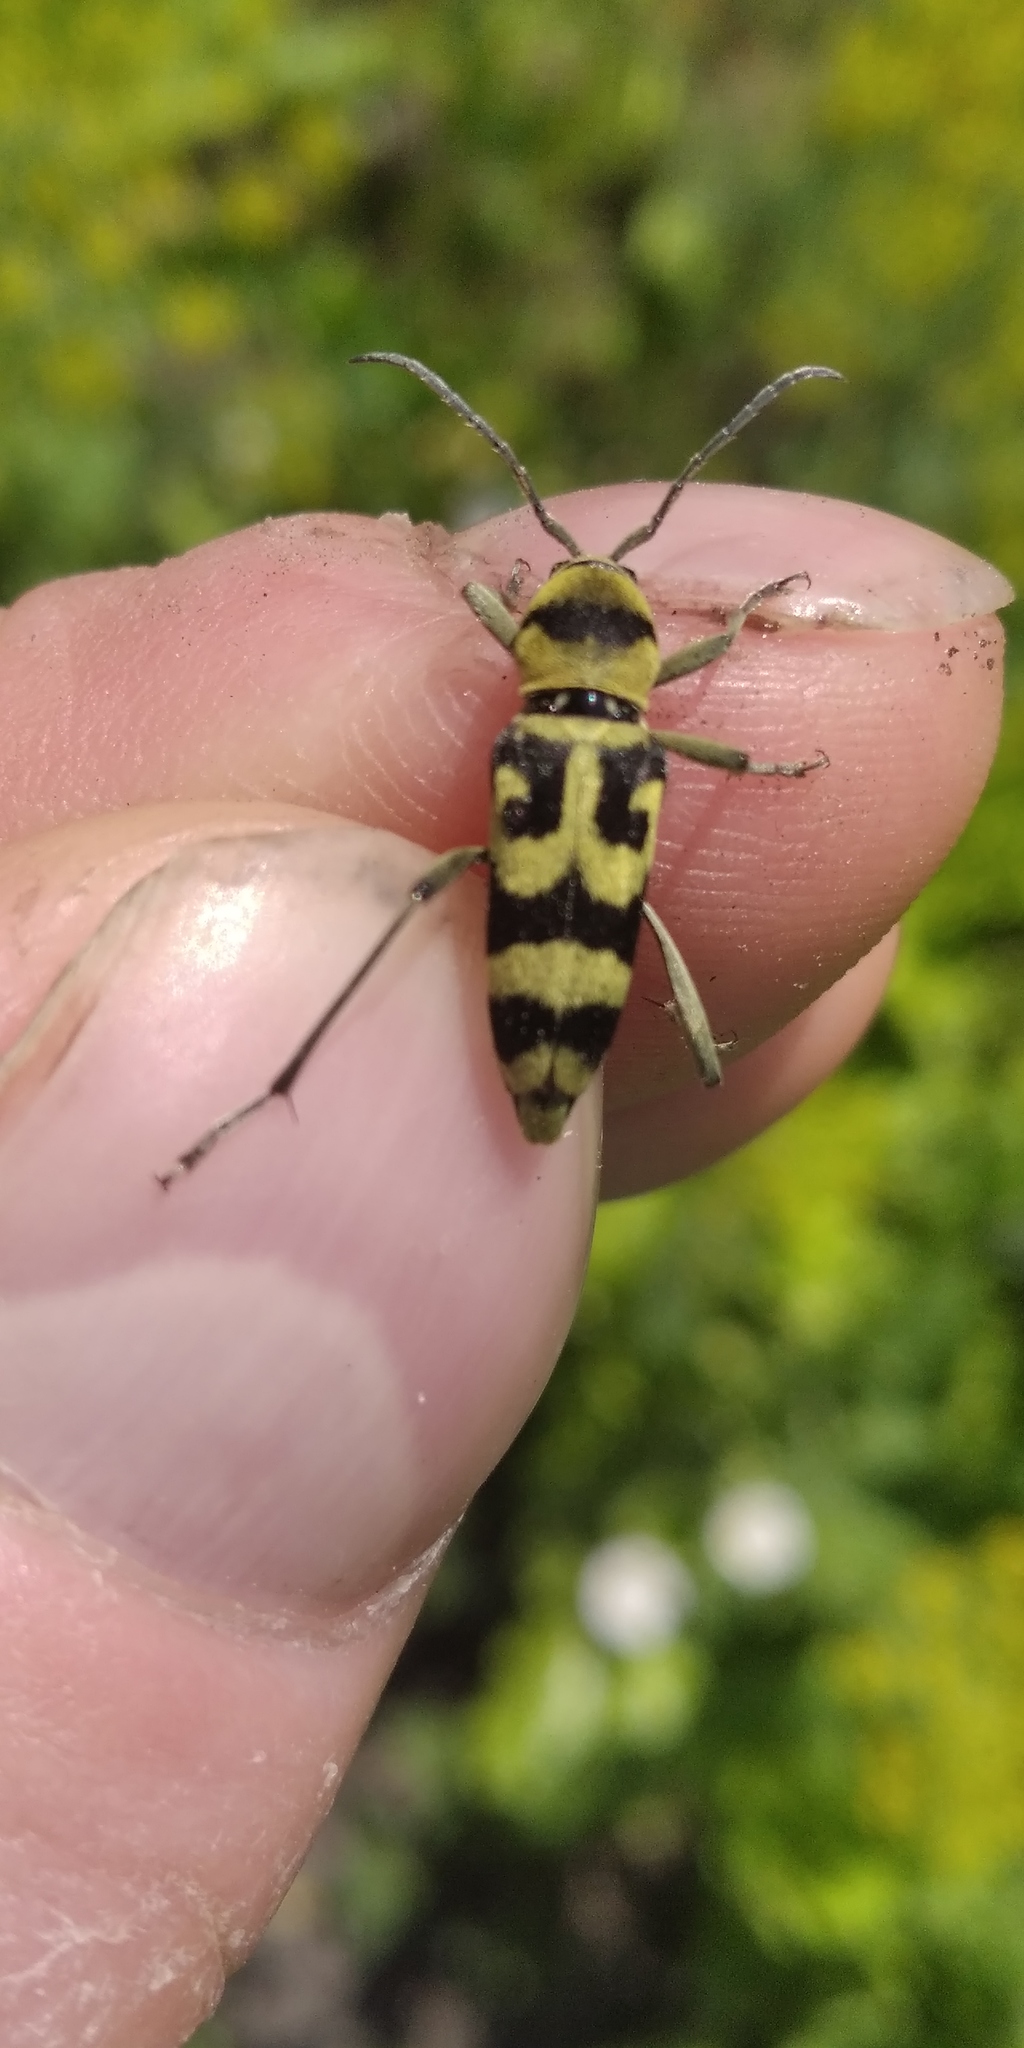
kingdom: Animalia
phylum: Arthropoda
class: Insecta
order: Coleoptera
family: Cerambycidae
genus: Chlorophorus
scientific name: Chlorophorus varius
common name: Grape wood borer
